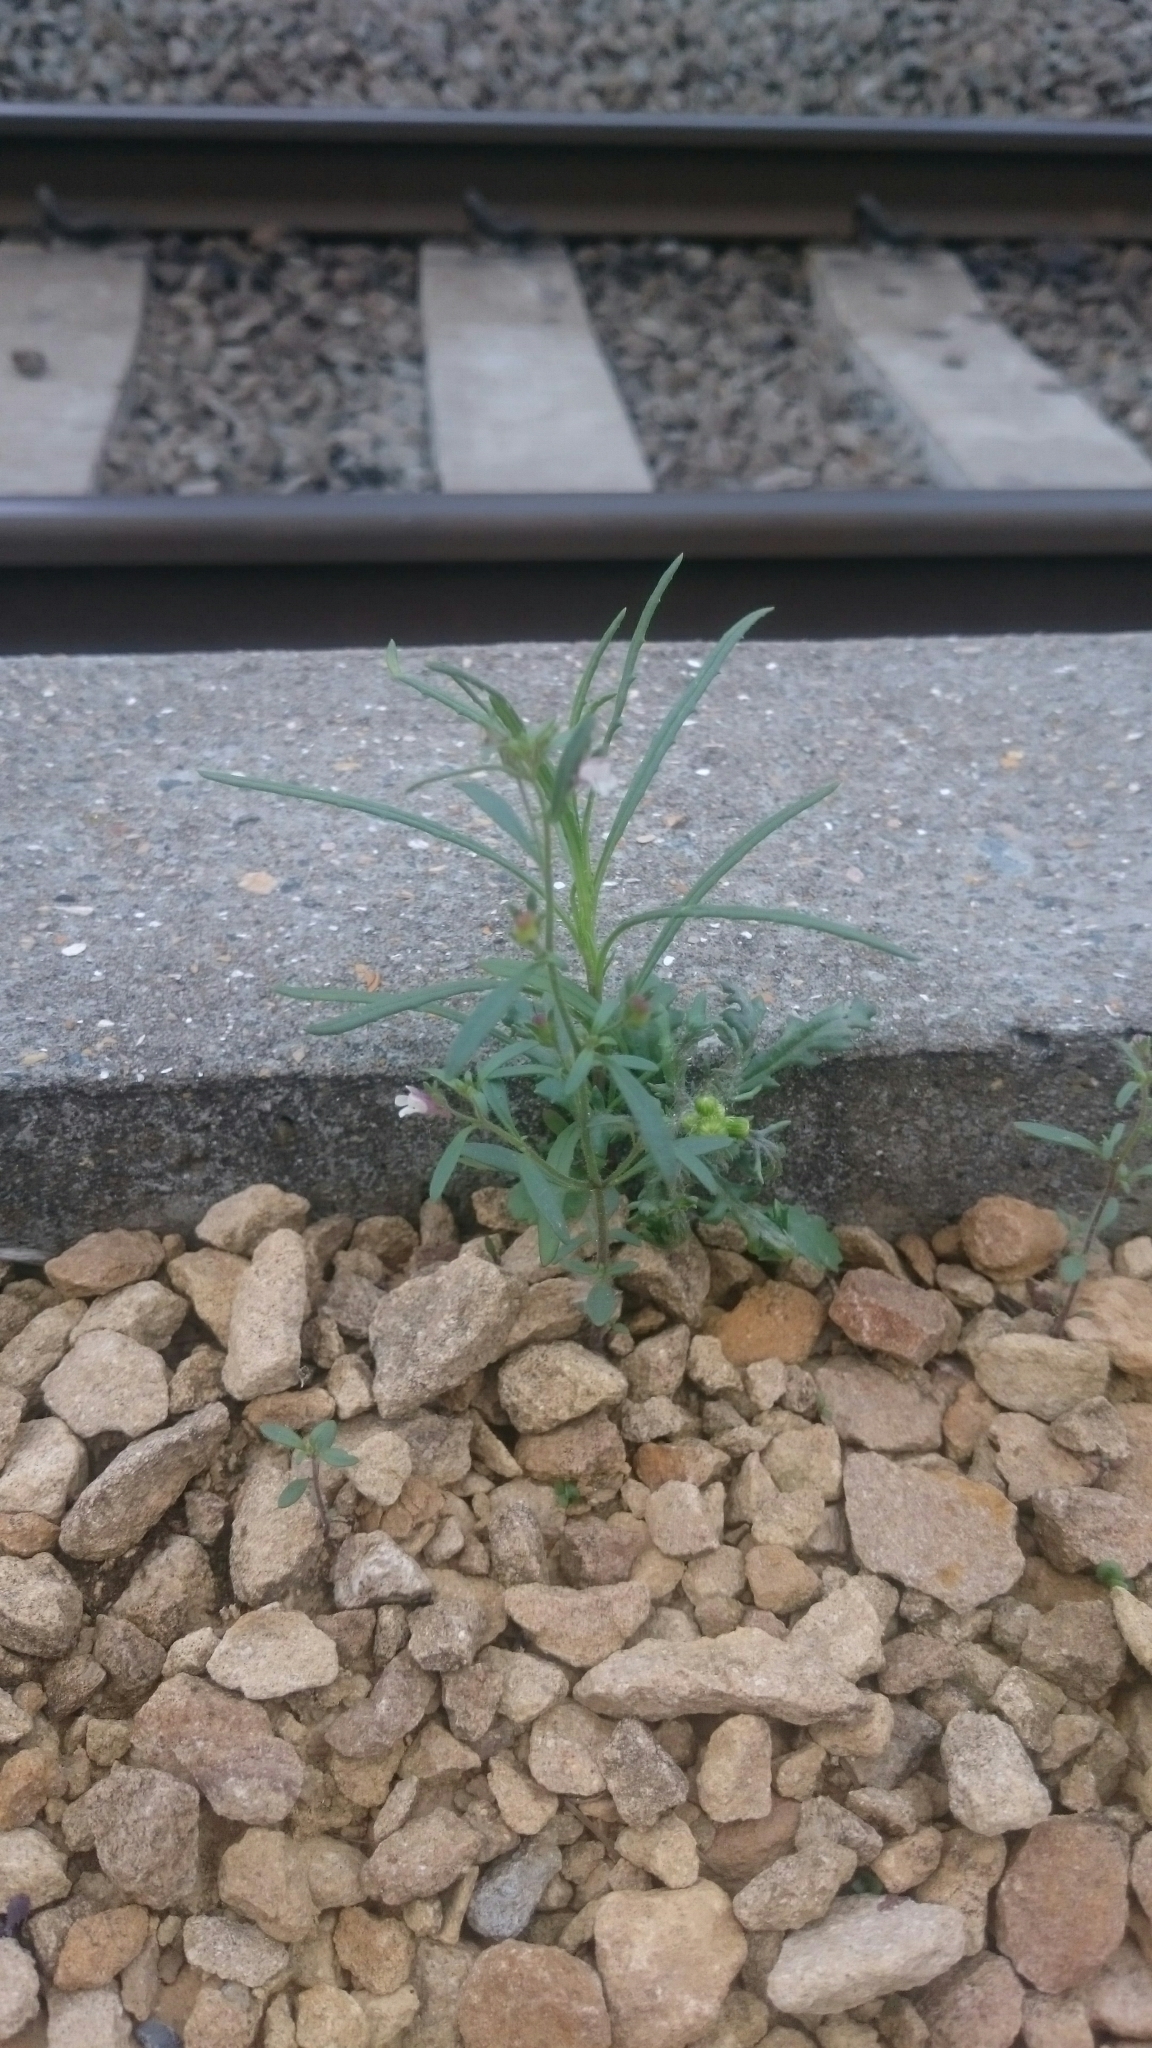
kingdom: Plantae
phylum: Tracheophyta
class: Magnoliopsida
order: Lamiales
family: Plantaginaceae
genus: Chaenorhinum
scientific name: Chaenorhinum minus
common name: Dwarf snapdragon
